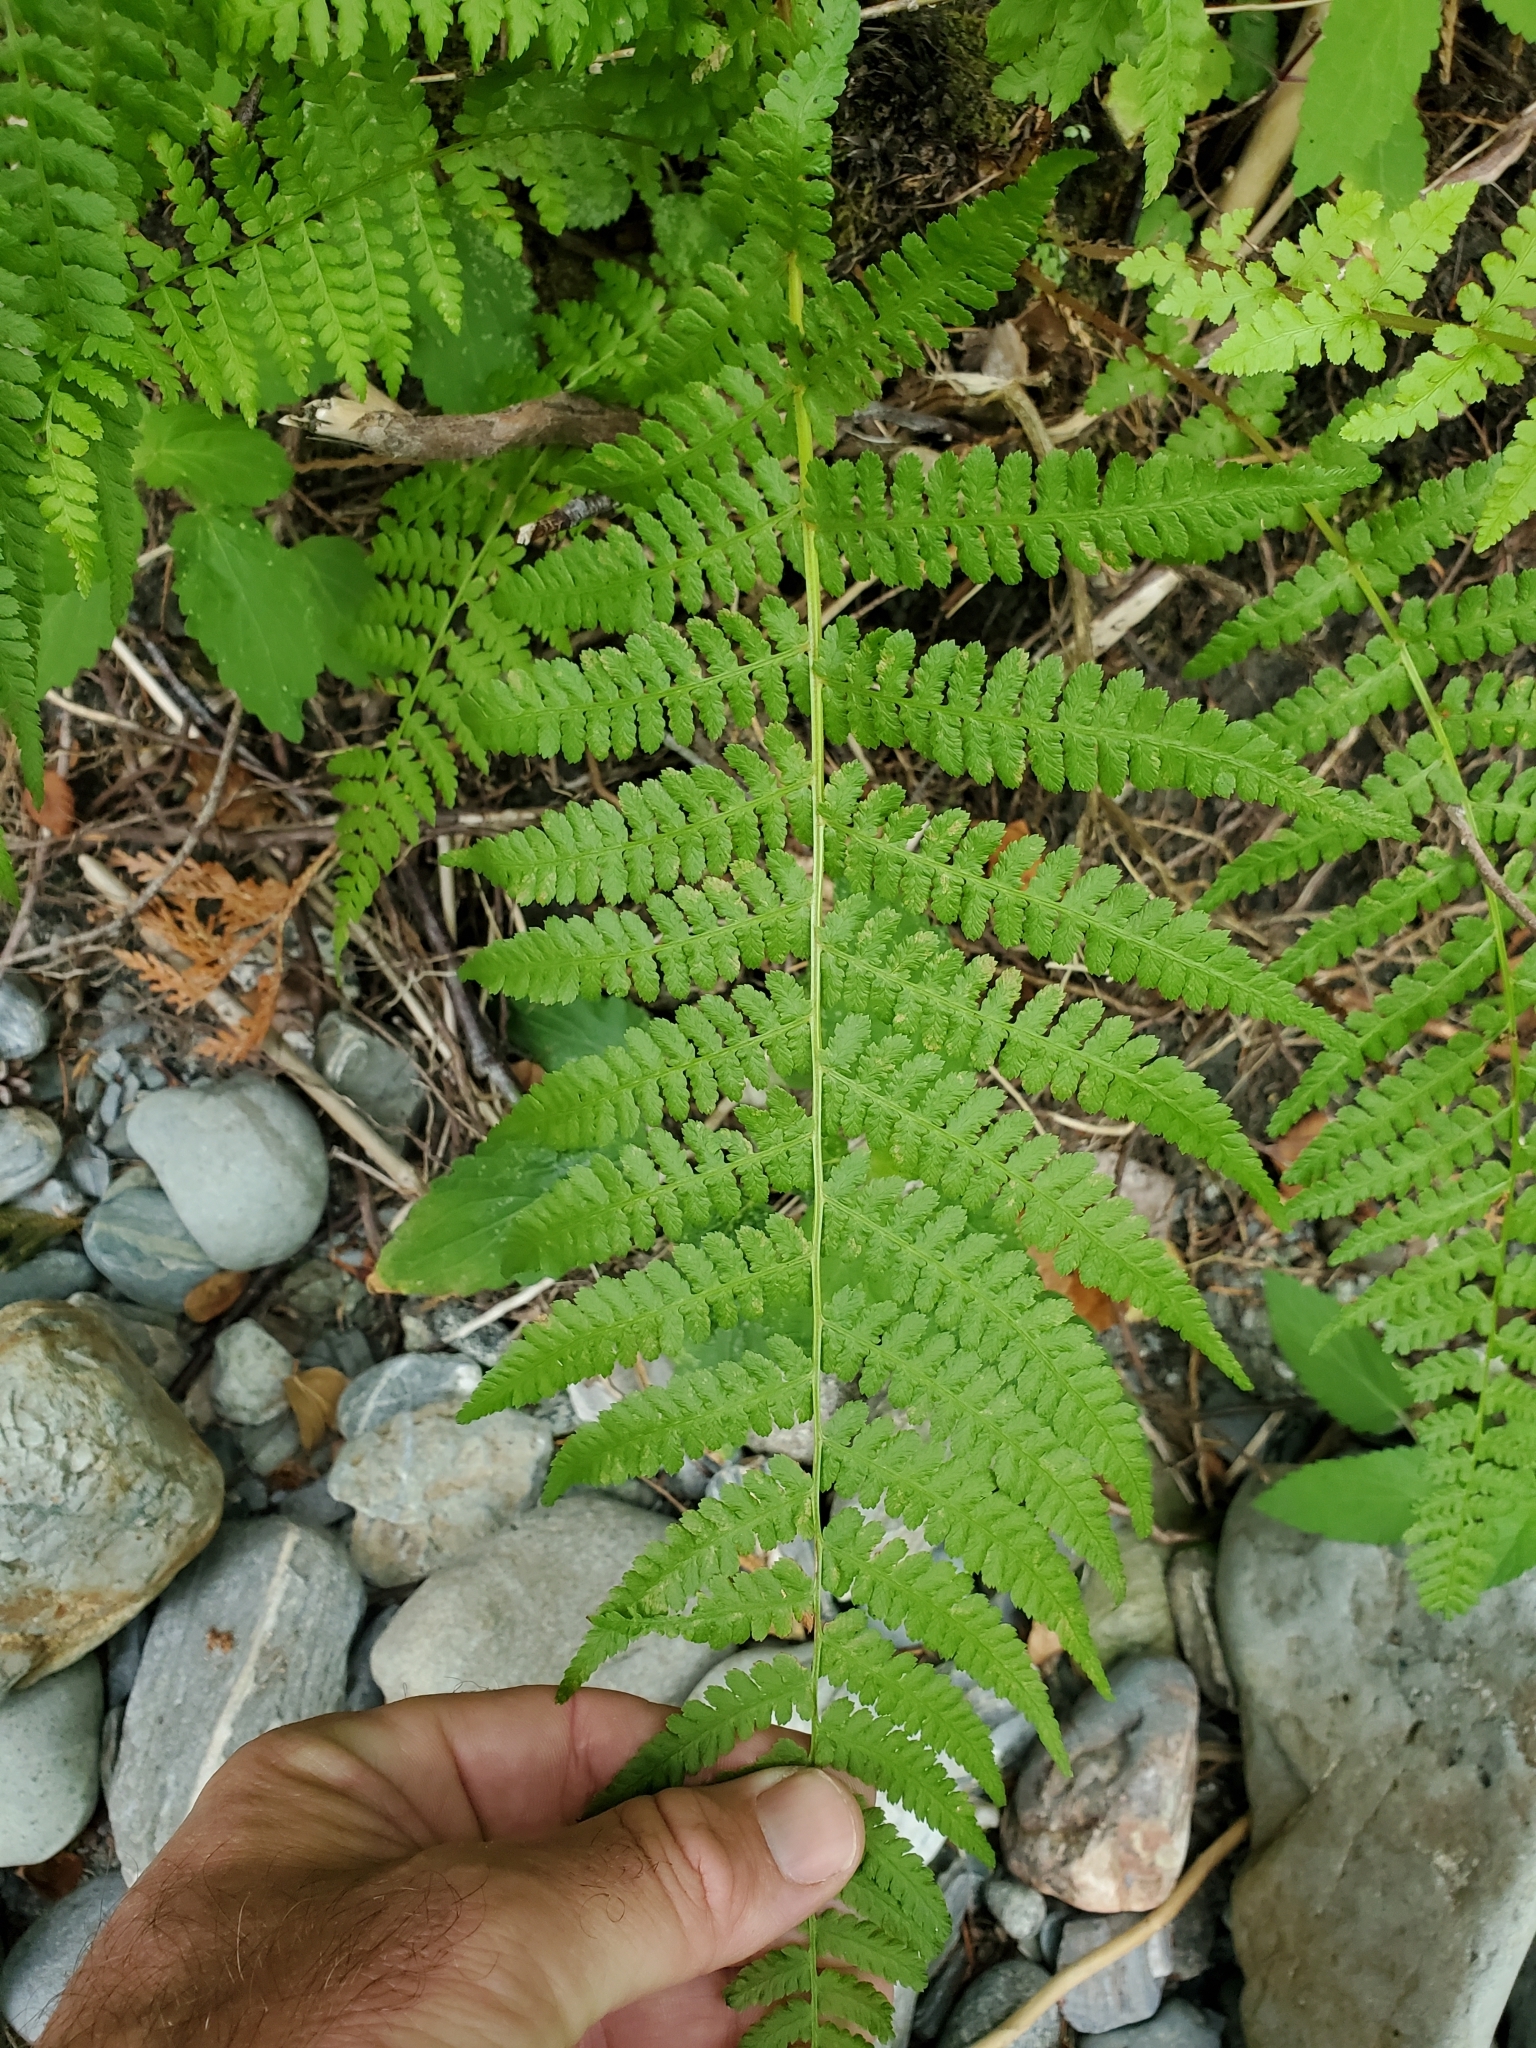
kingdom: Plantae
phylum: Tracheophyta
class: Polypodiopsida
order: Polypodiales
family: Athyriaceae
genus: Athyrium
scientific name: Athyrium cyclosorum
